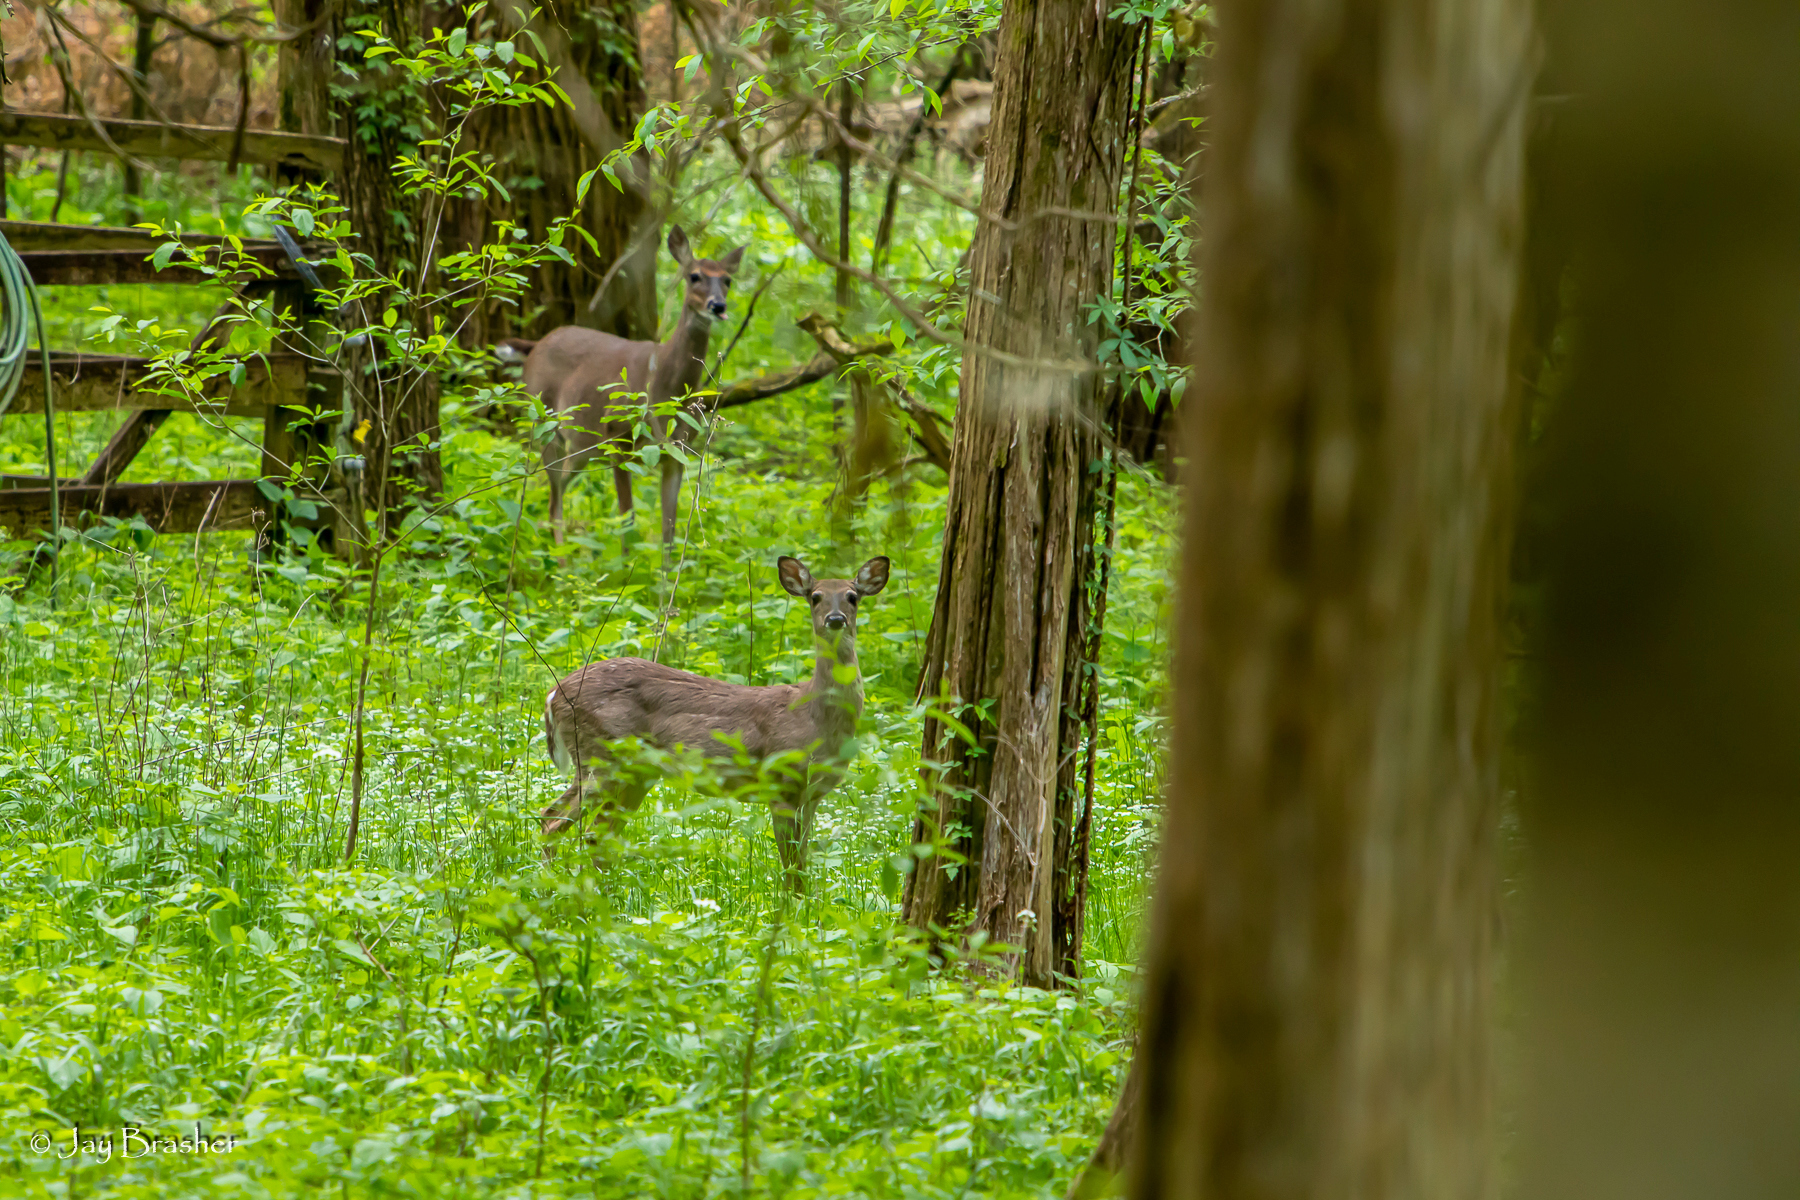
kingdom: Animalia
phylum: Chordata
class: Mammalia
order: Artiodactyla
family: Cervidae
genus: Odocoileus
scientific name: Odocoileus virginianus
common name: White-tailed deer
